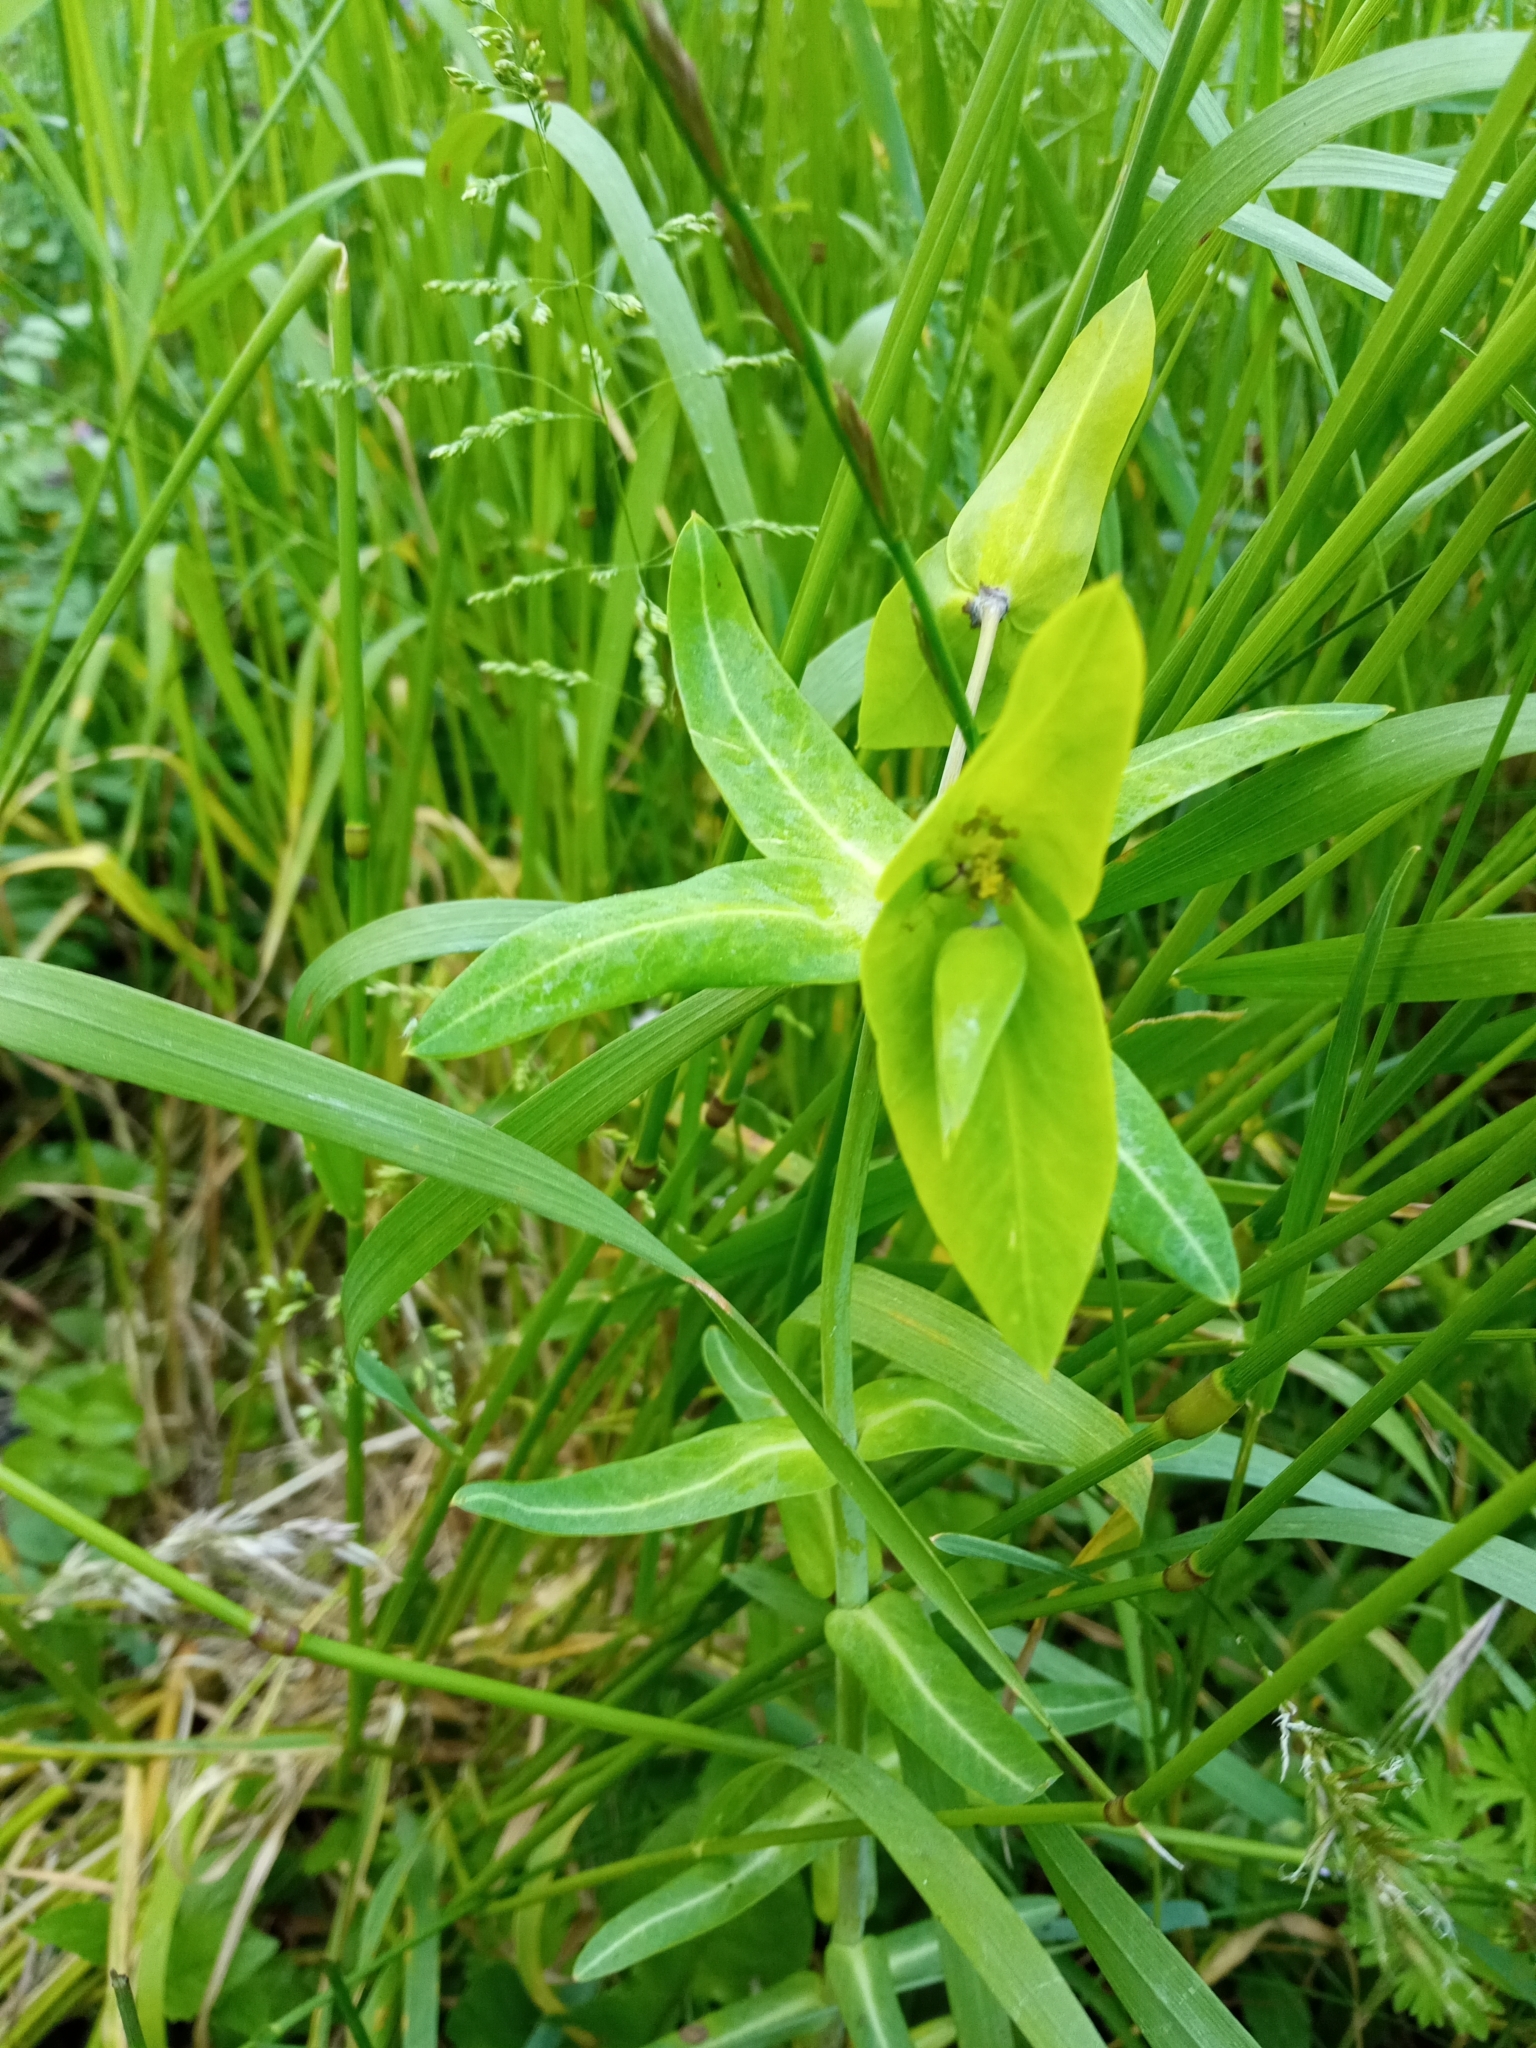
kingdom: Plantae
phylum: Tracheophyta
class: Magnoliopsida
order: Malpighiales
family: Euphorbiaceae
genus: Euphorbia
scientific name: Euphorbia lathyris
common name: Caper spurge
